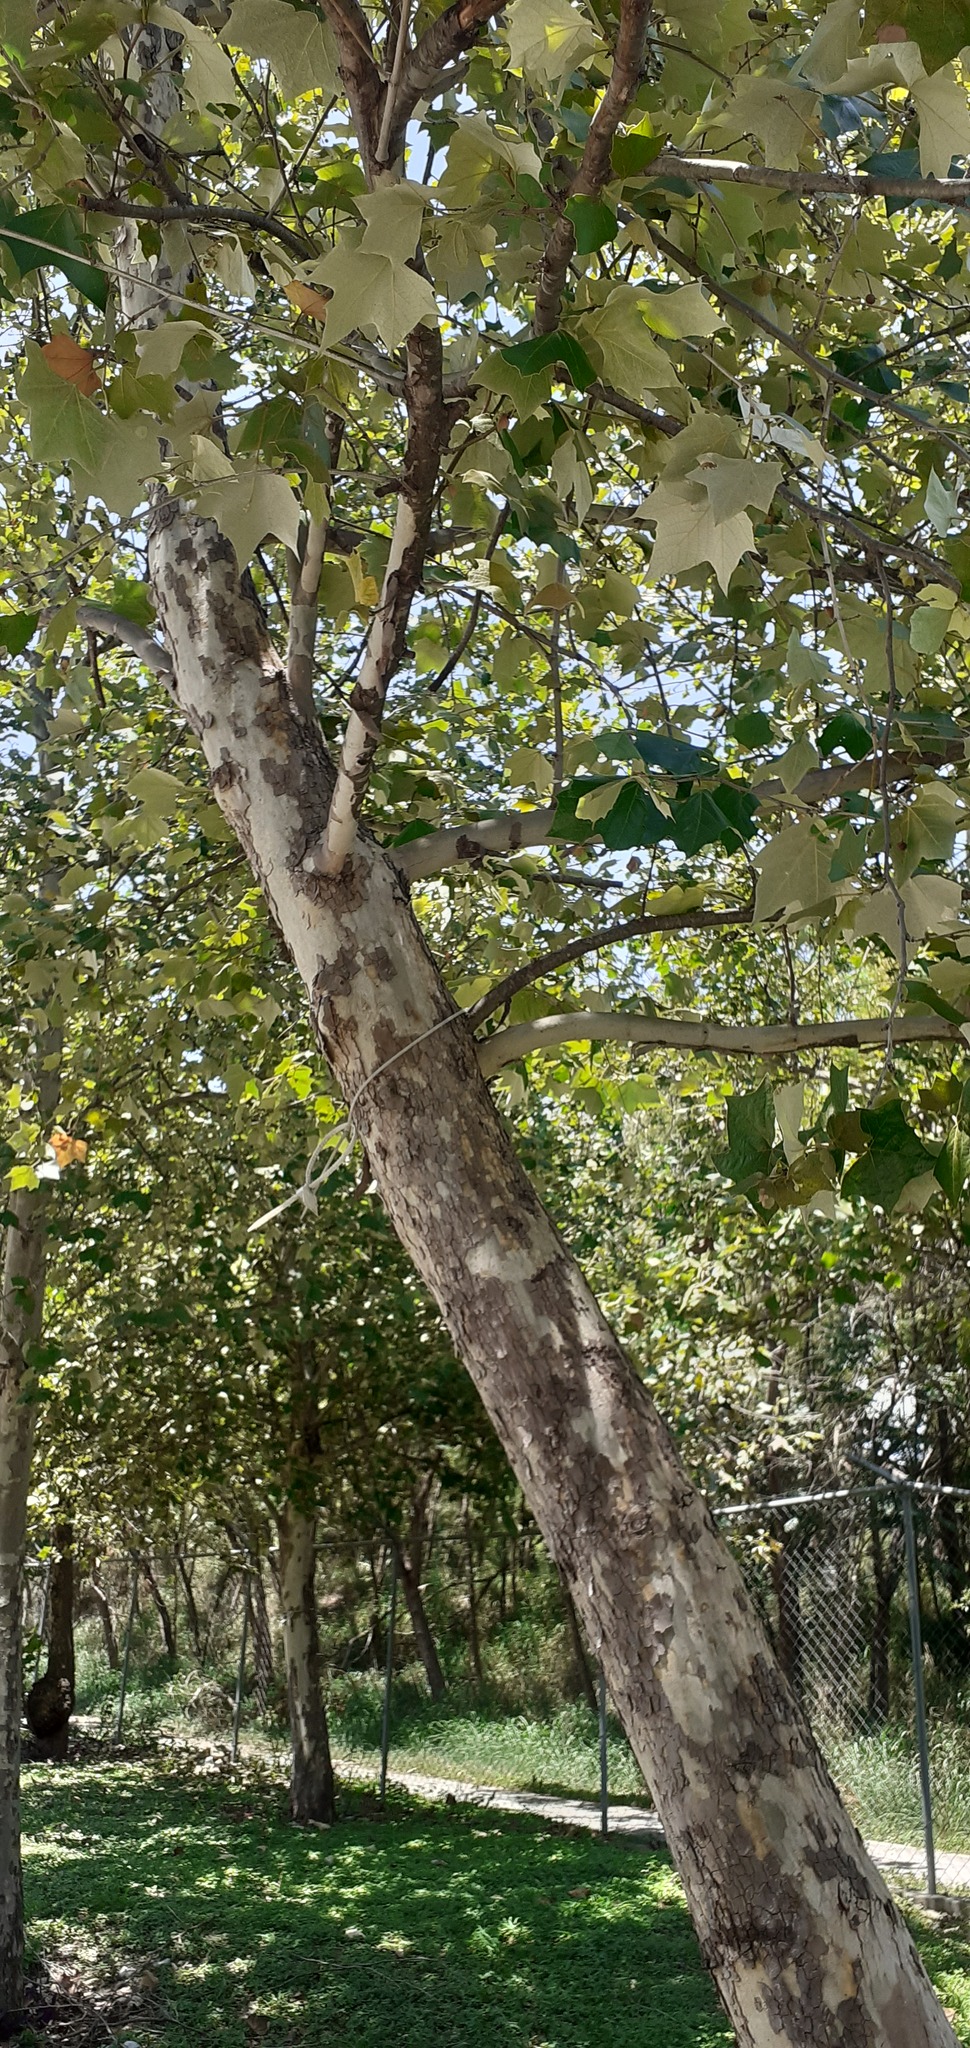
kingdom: Plantae
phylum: Tracheophyta
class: Magnoliopsida
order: Proteales
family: Platanaceae
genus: Platanus
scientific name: Platanus rzedowskii
